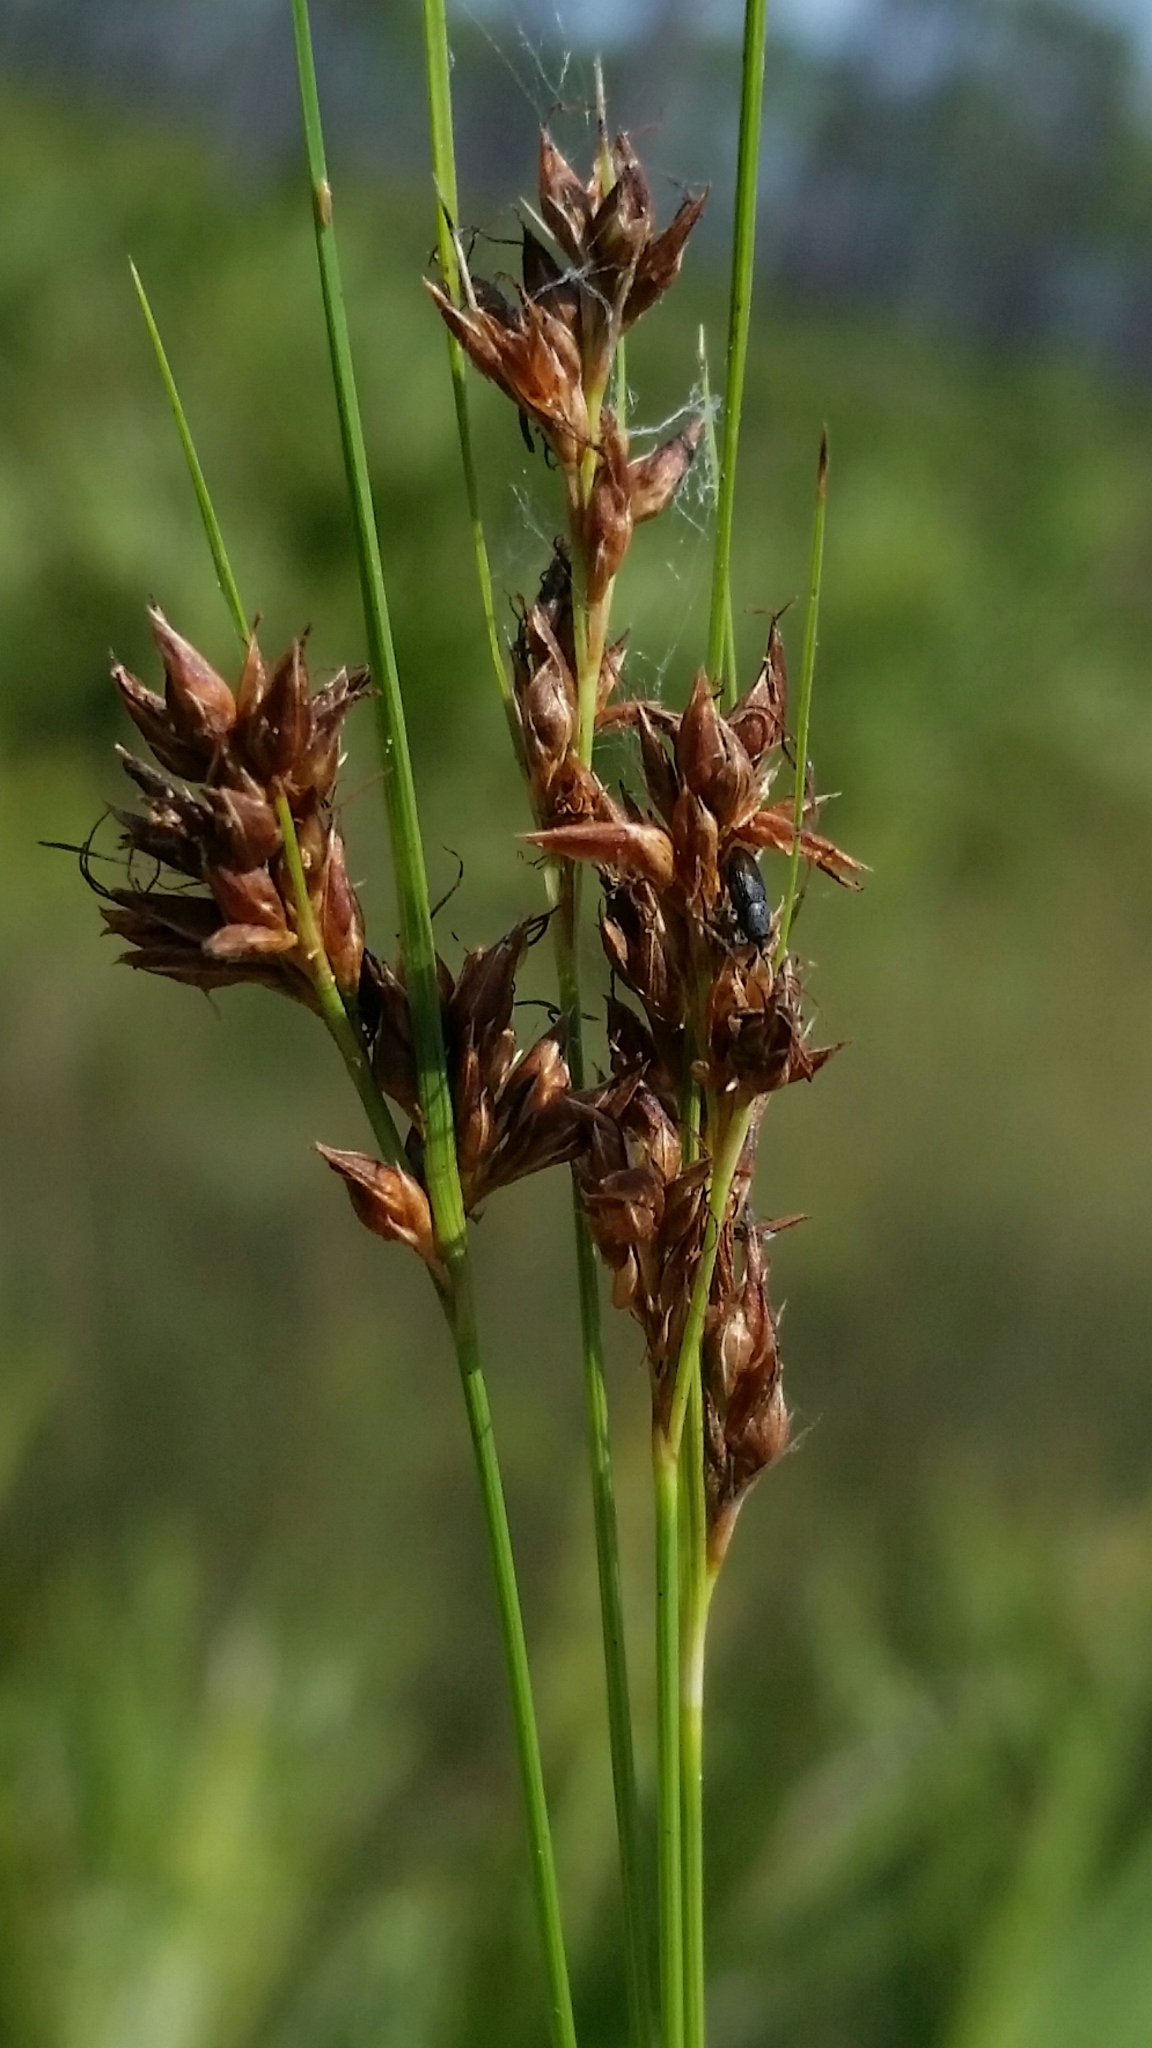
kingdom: Plantae
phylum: Tracheophyta
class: Liliopsida
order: Poales
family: Cyperaceae
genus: Rhynchospora
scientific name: Rhynchospora plumosa
